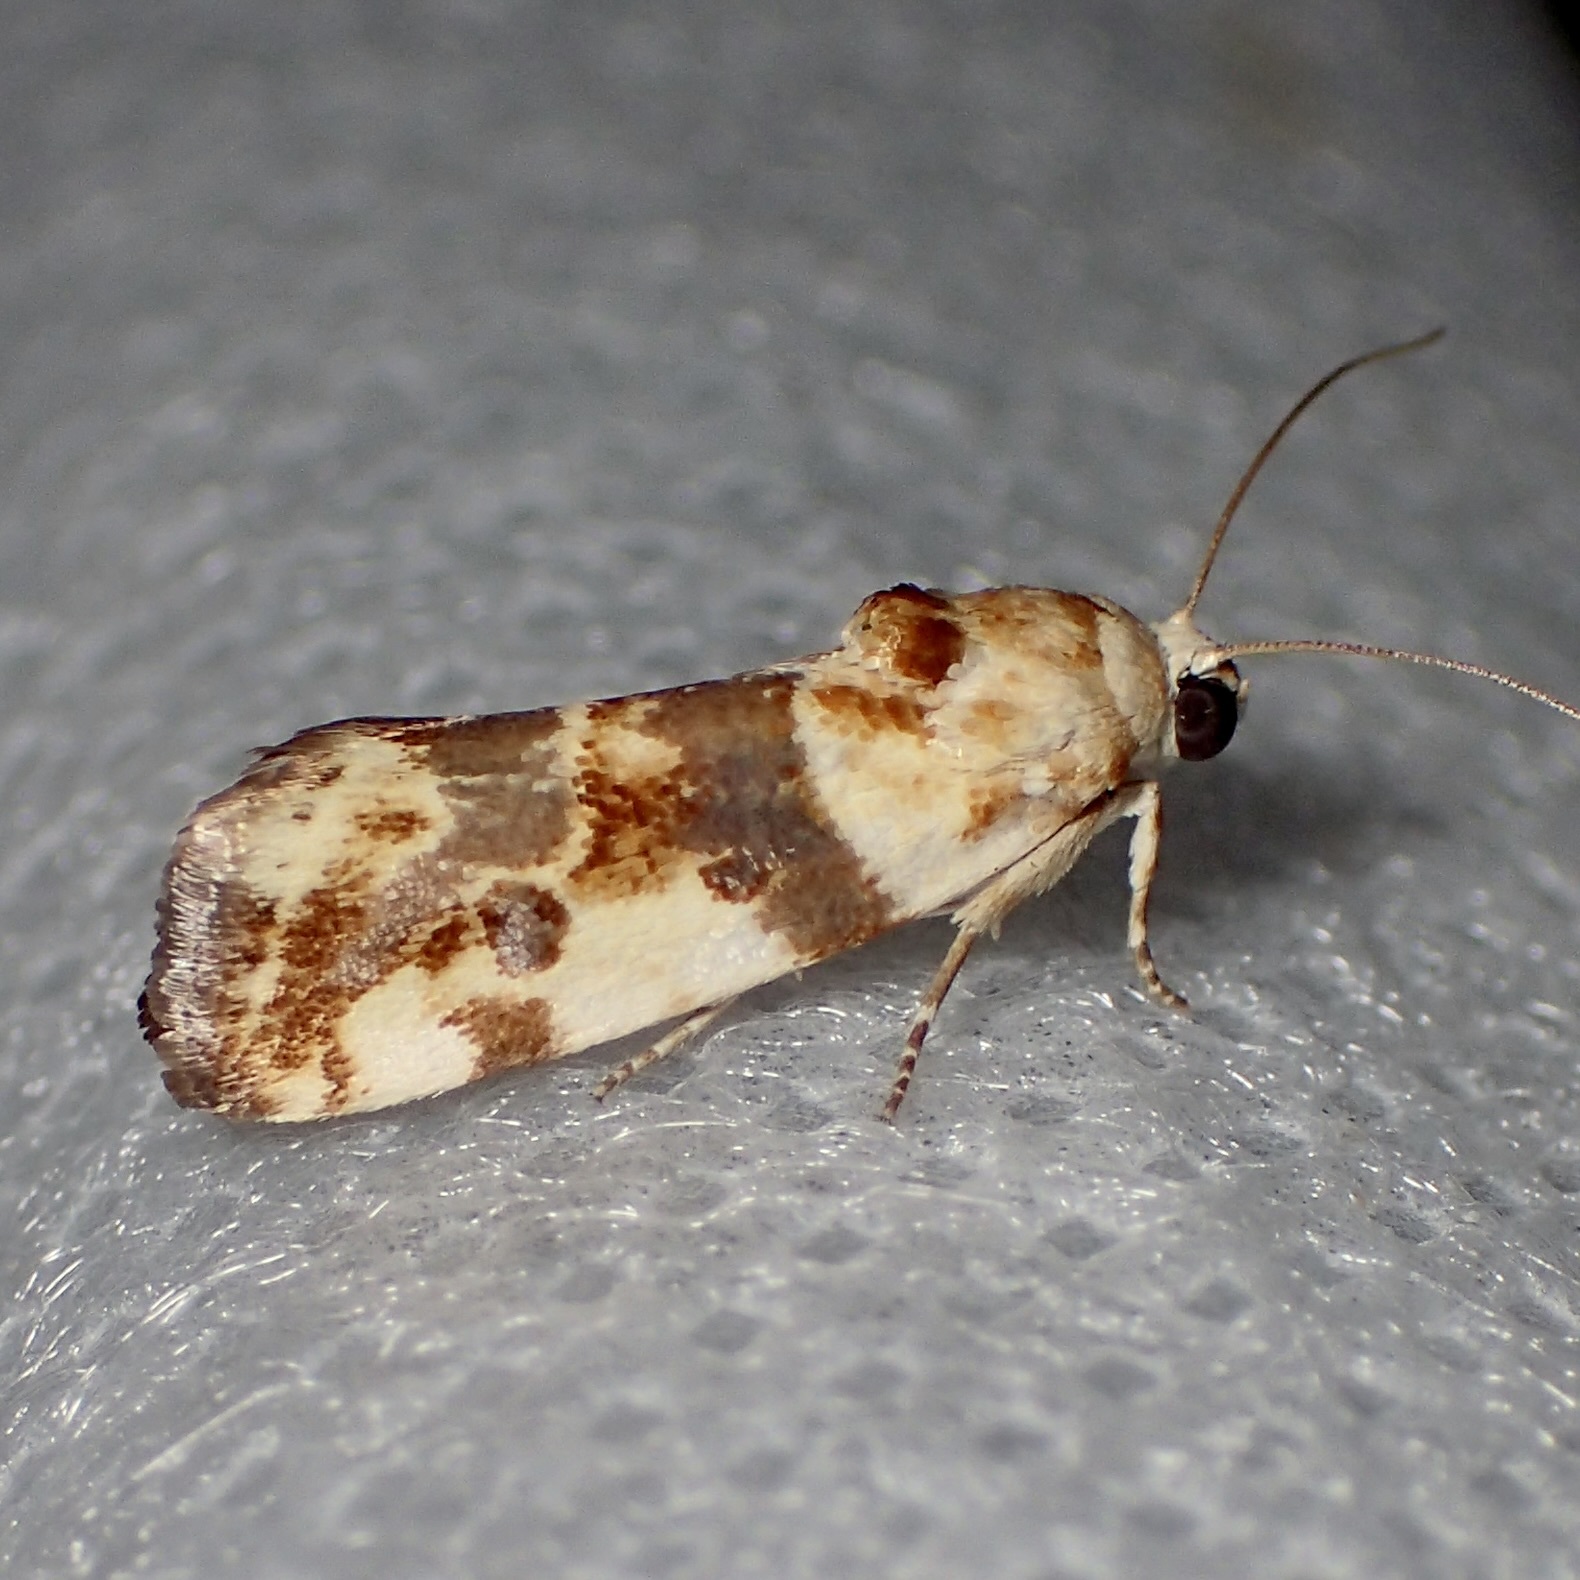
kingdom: Animalia
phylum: Arthropoda
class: Insecta
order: Lepidoptera
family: Noctuidae
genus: Acontia
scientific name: Acontia obatra
